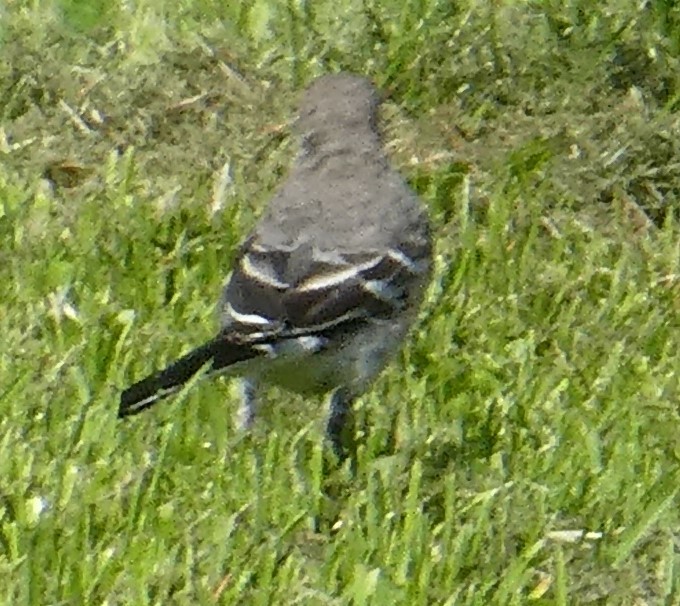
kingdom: Animalia
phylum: Chordata
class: Aves
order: Passeriformes
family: Motacillidae
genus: Motacilla
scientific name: Motacilla alba
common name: White wagtail
